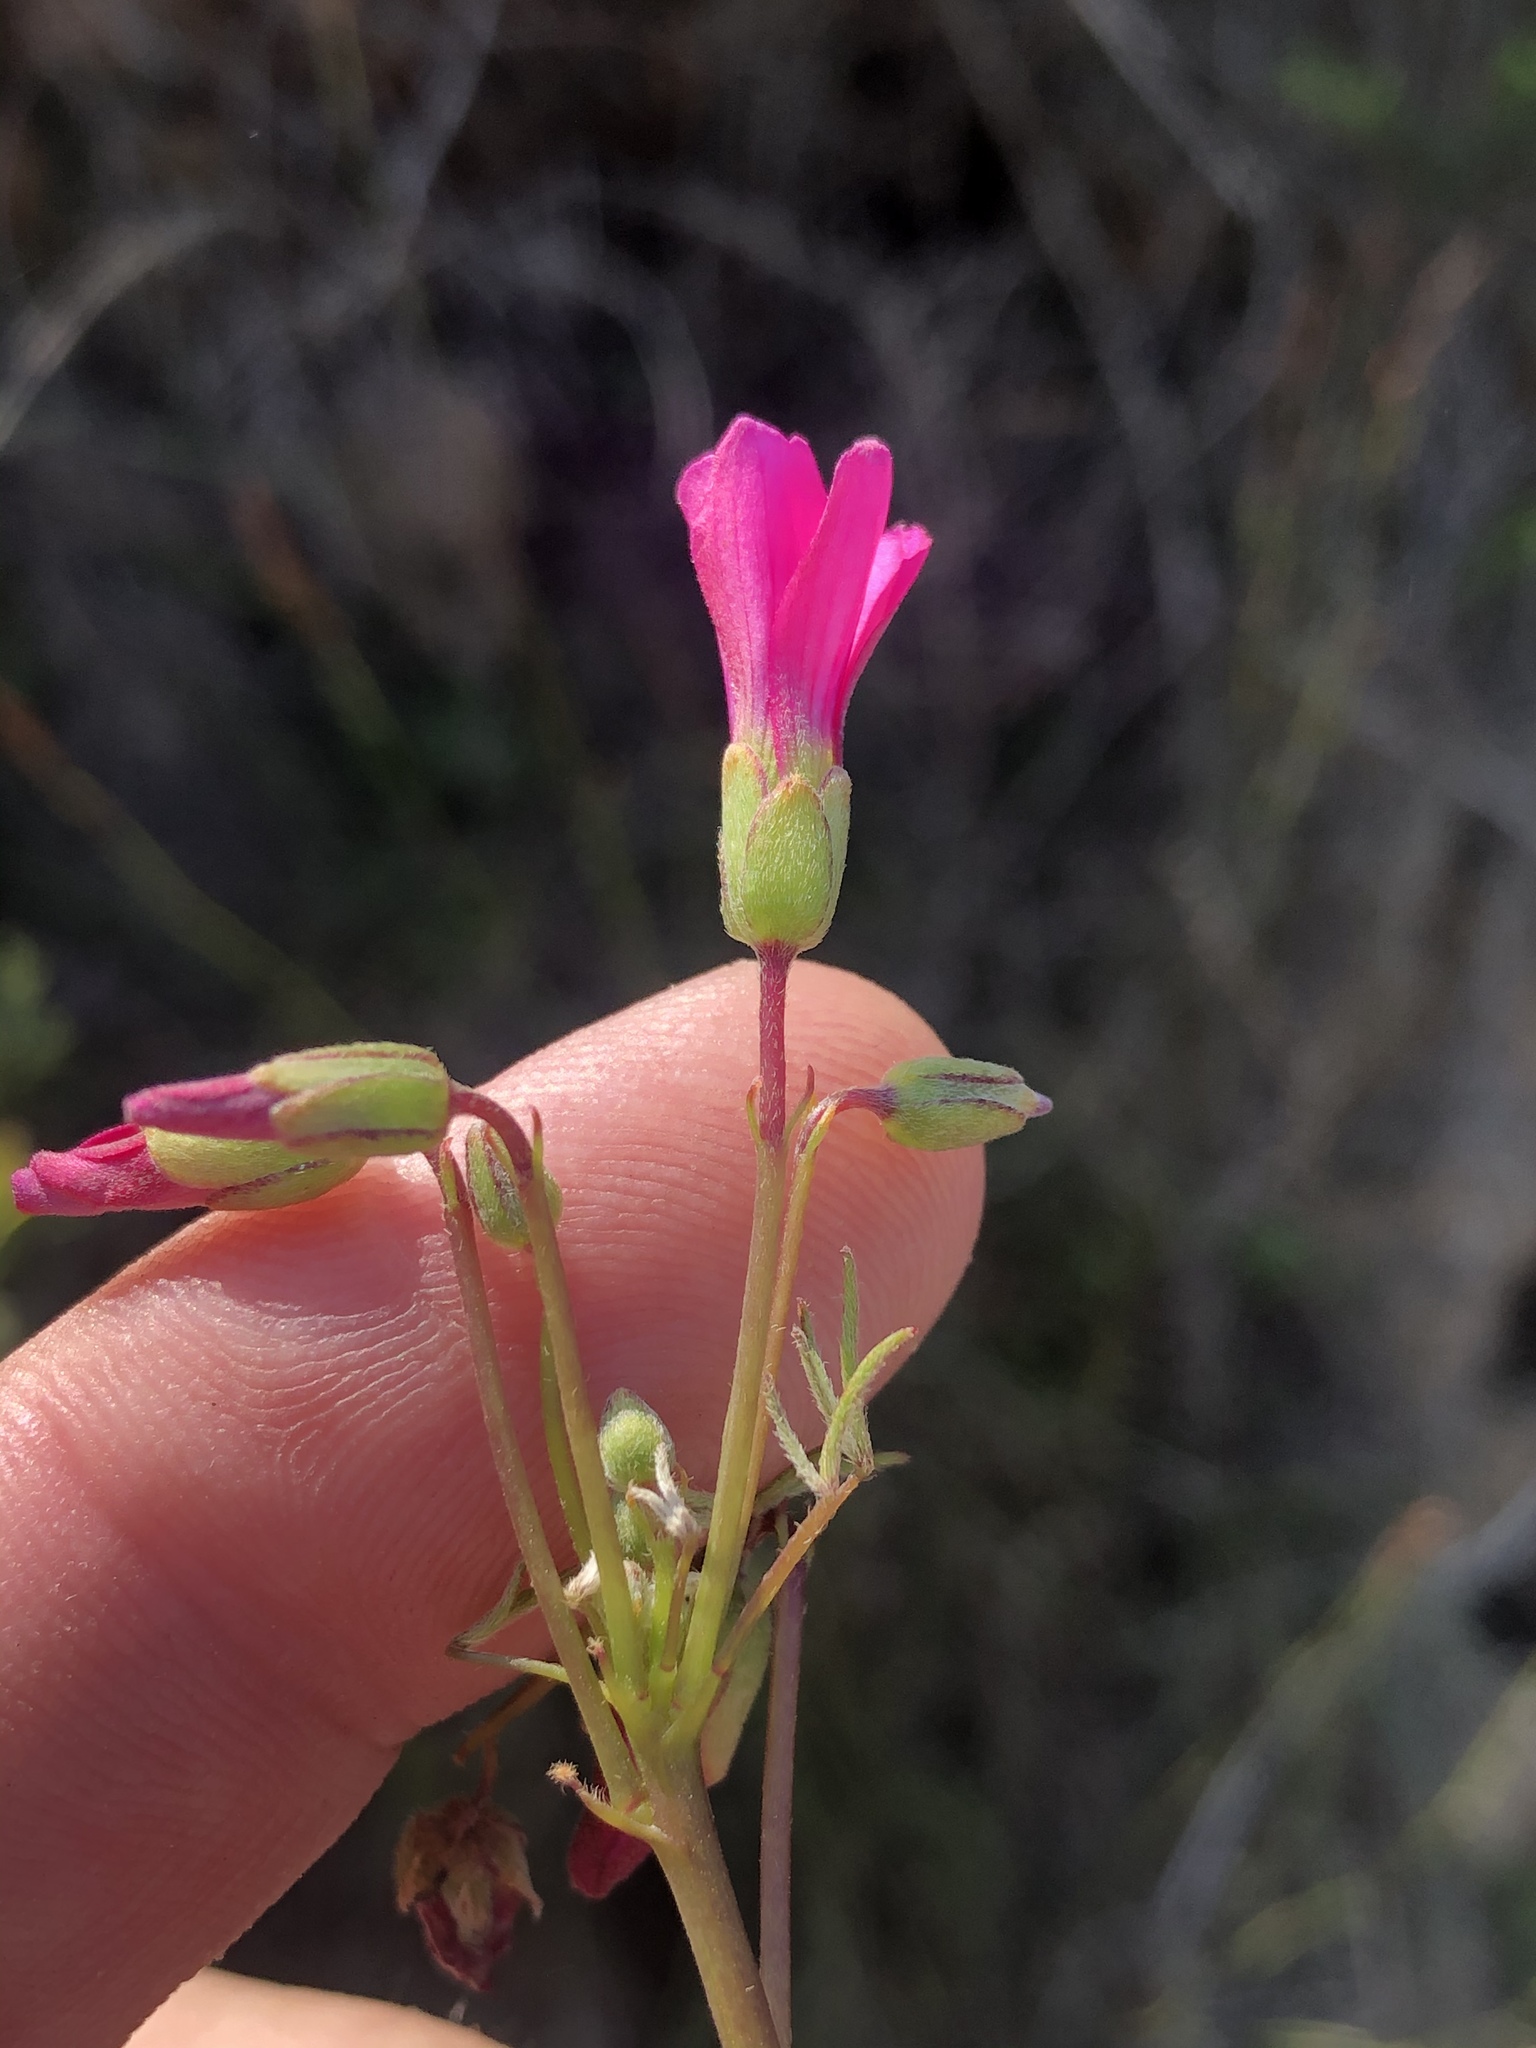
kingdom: Plantae
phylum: Tracheophyta
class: Magnoliopsida
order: Oxalidales
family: Oxalidaceae
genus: Oxalis
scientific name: Oxalis pendulifolia
